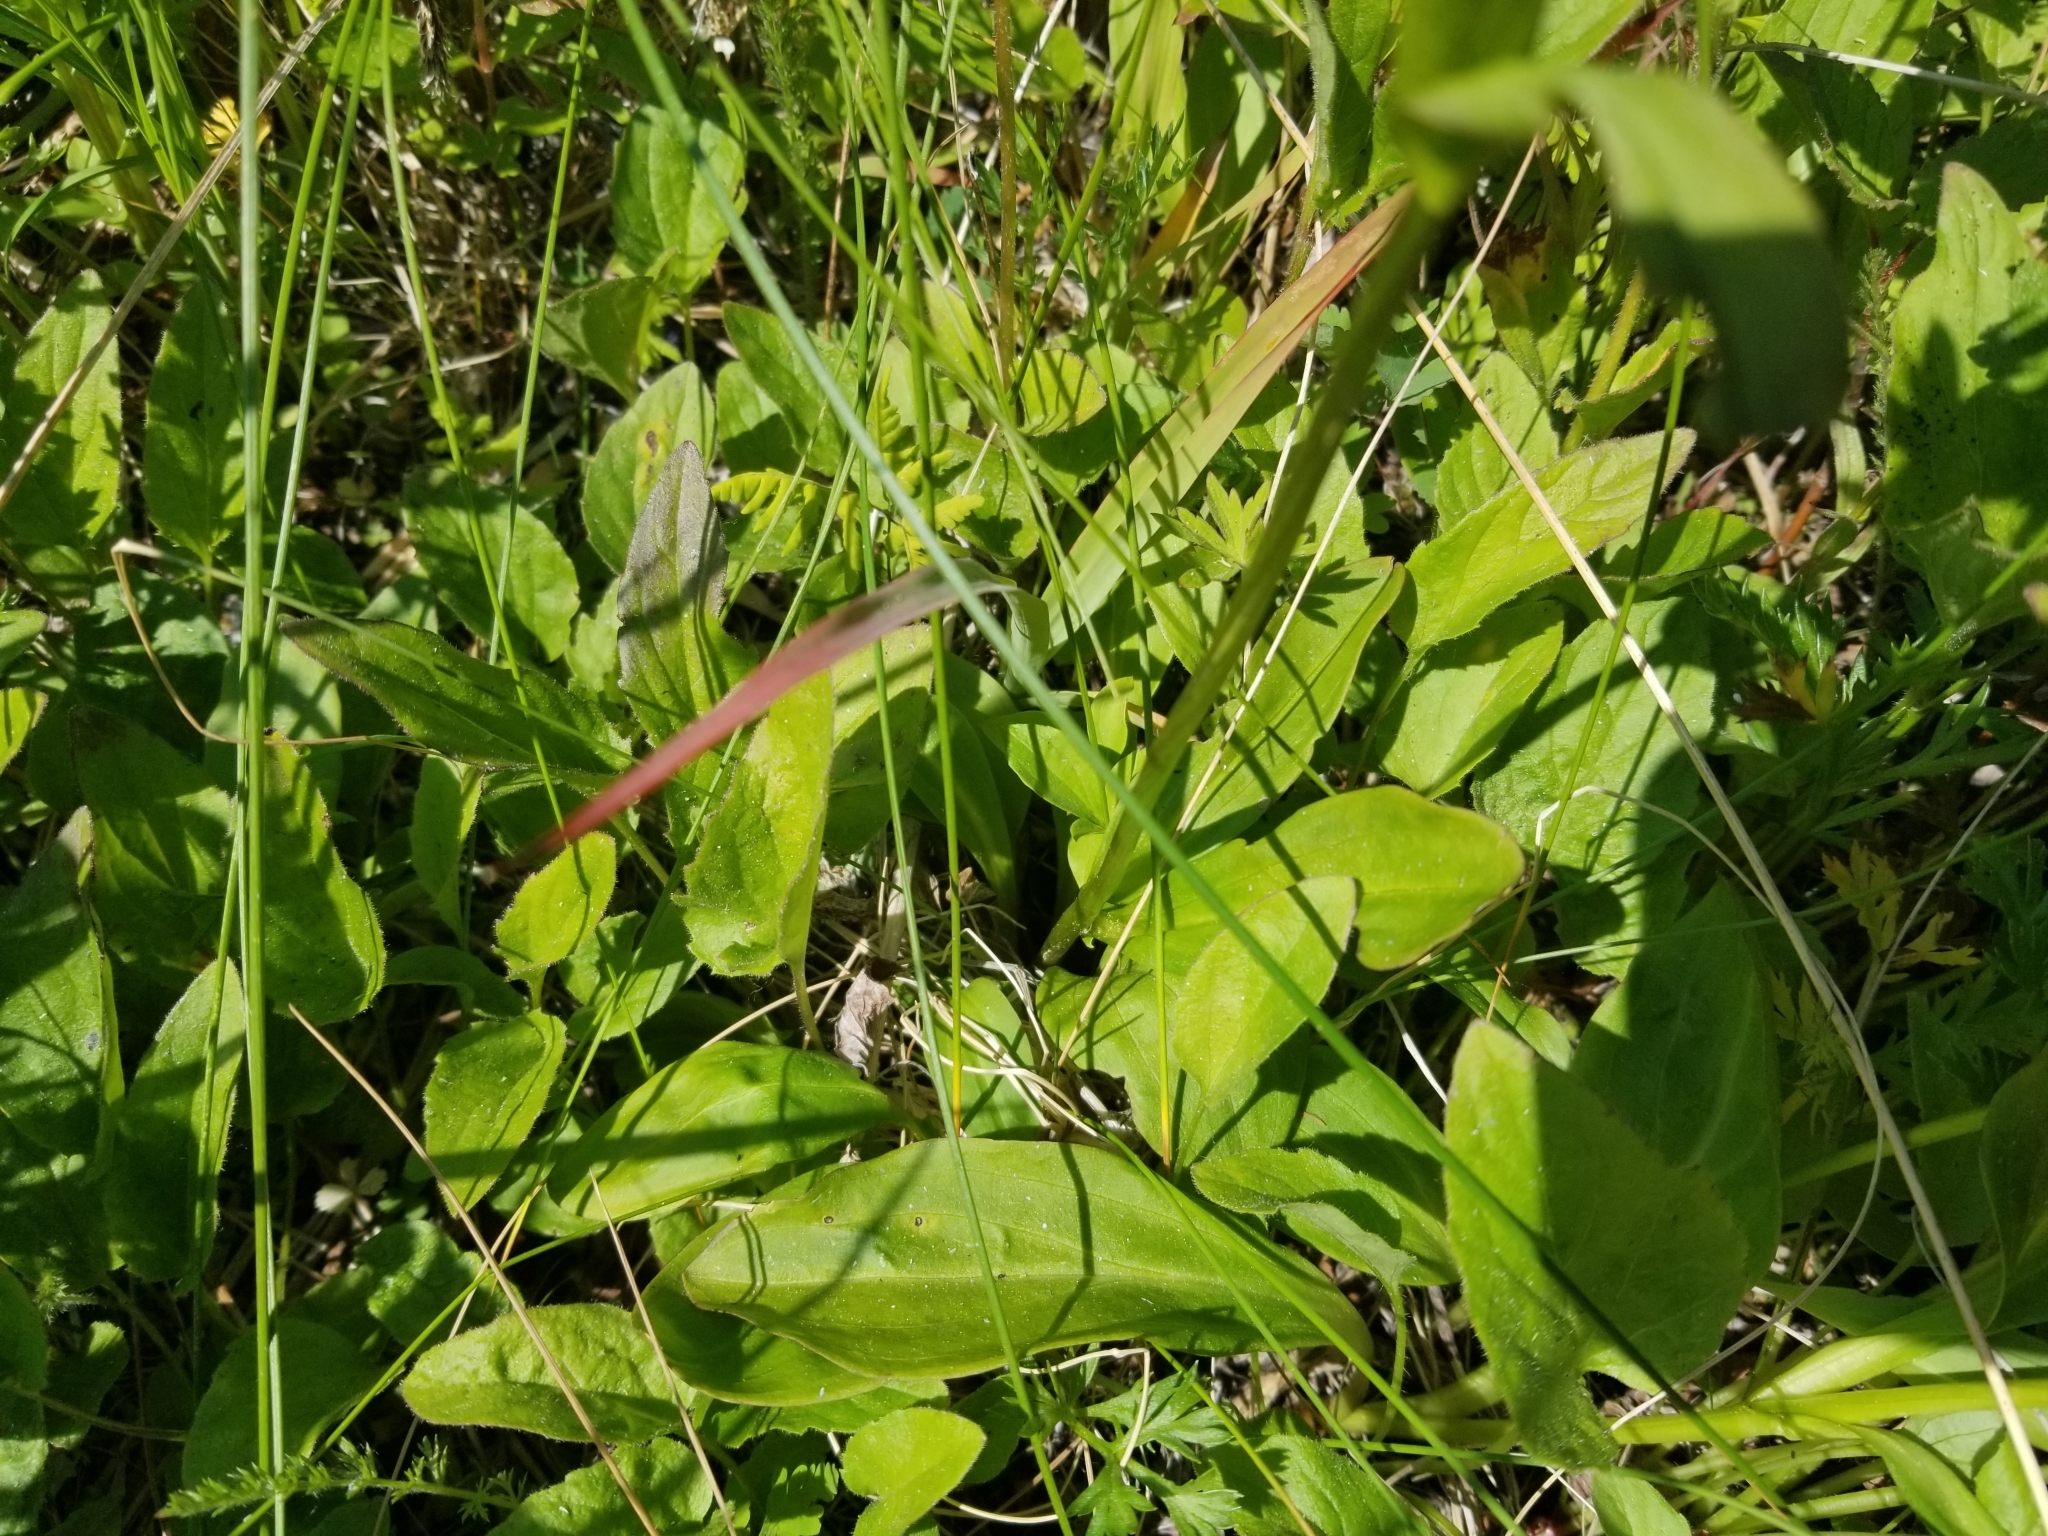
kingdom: Plantae
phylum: Tracheophyta
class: Magnoliopsida
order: Gentianales
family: Gentianaceae
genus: Swertia
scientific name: Swertia perennis
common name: Alpine bog swertia
